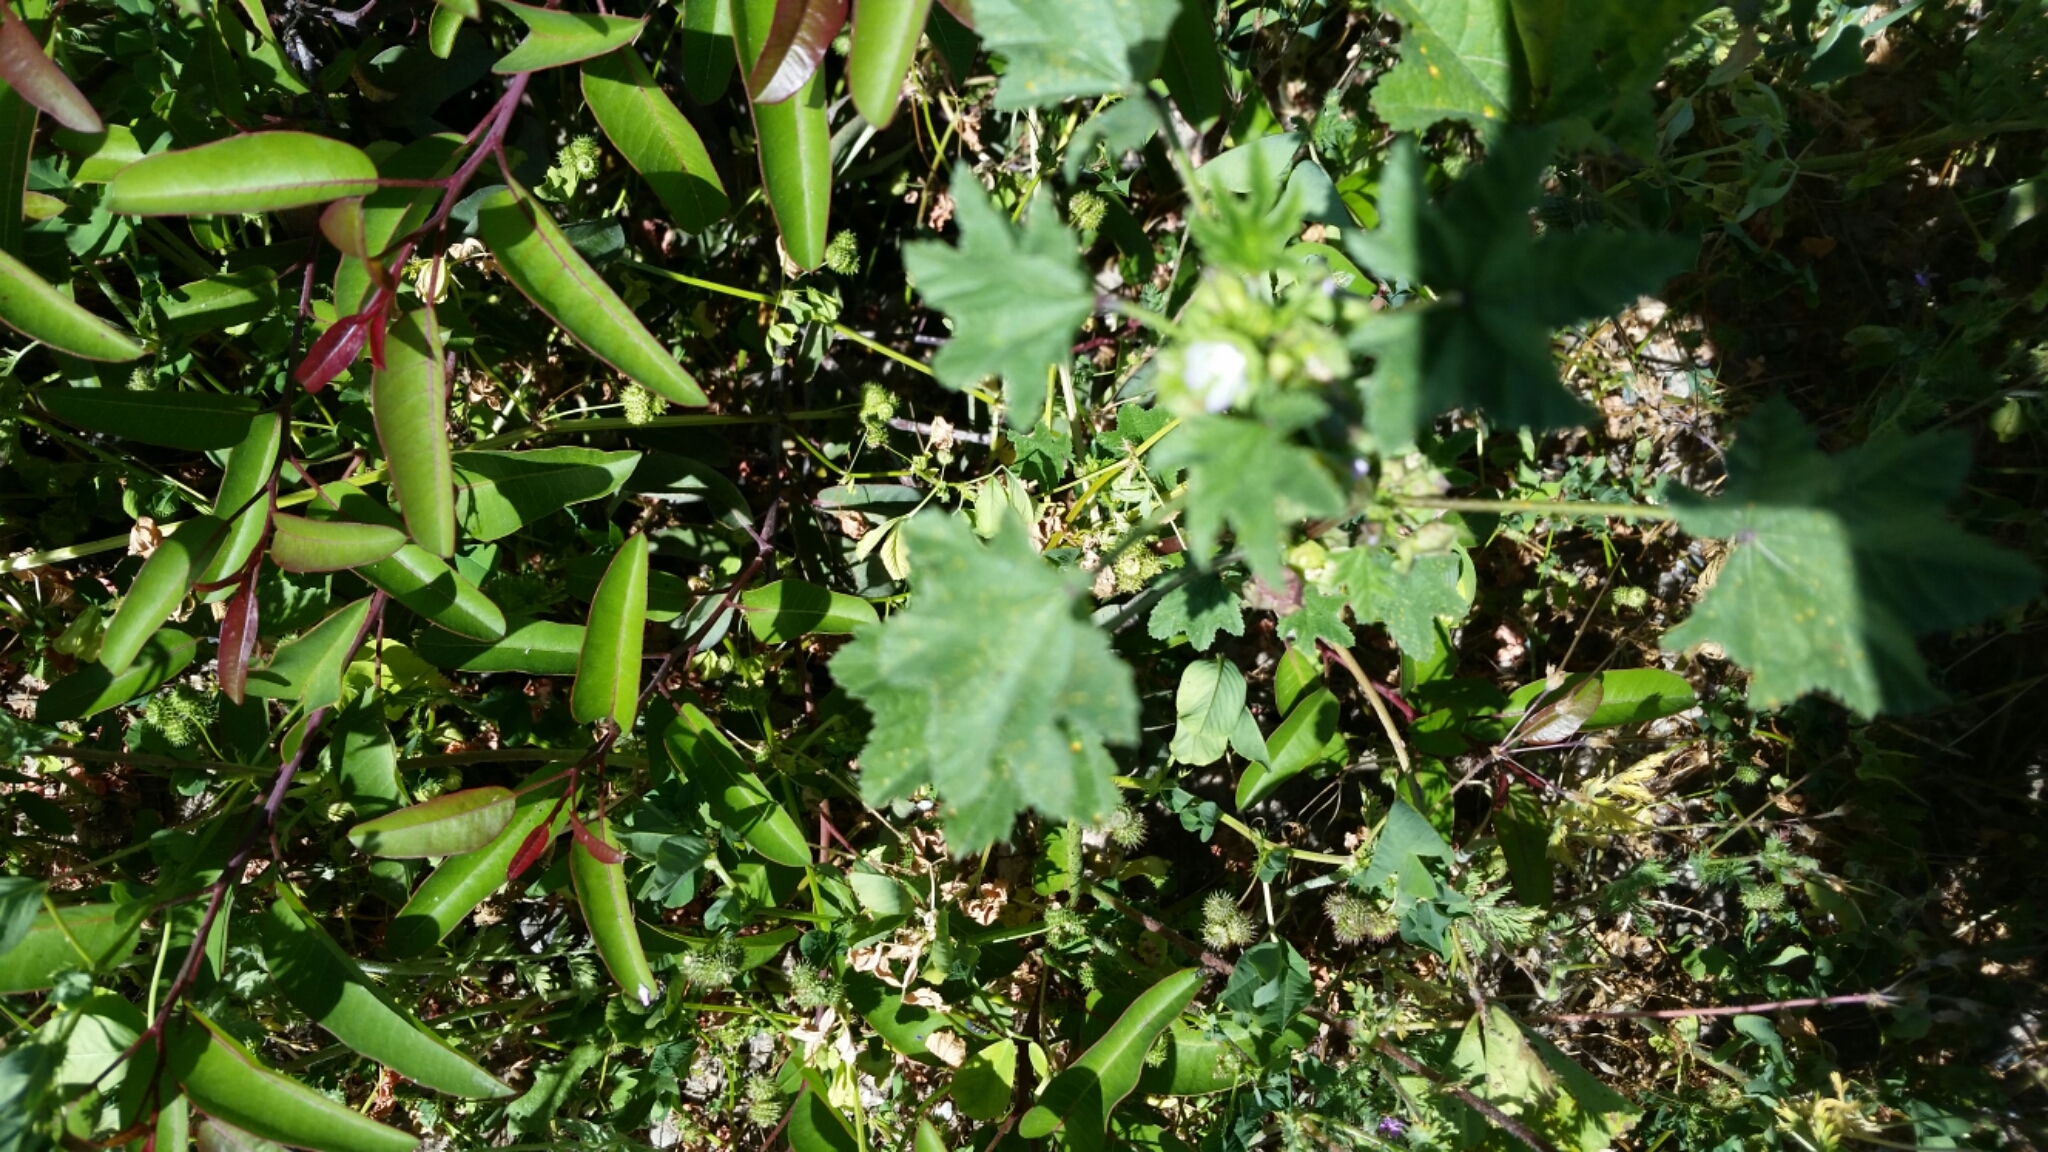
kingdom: Plantae
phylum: Tracheophyta
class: Magnoliopsida
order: Malvales
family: Malvaceae
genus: Malva
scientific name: Malva parviflora
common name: Least mallow
